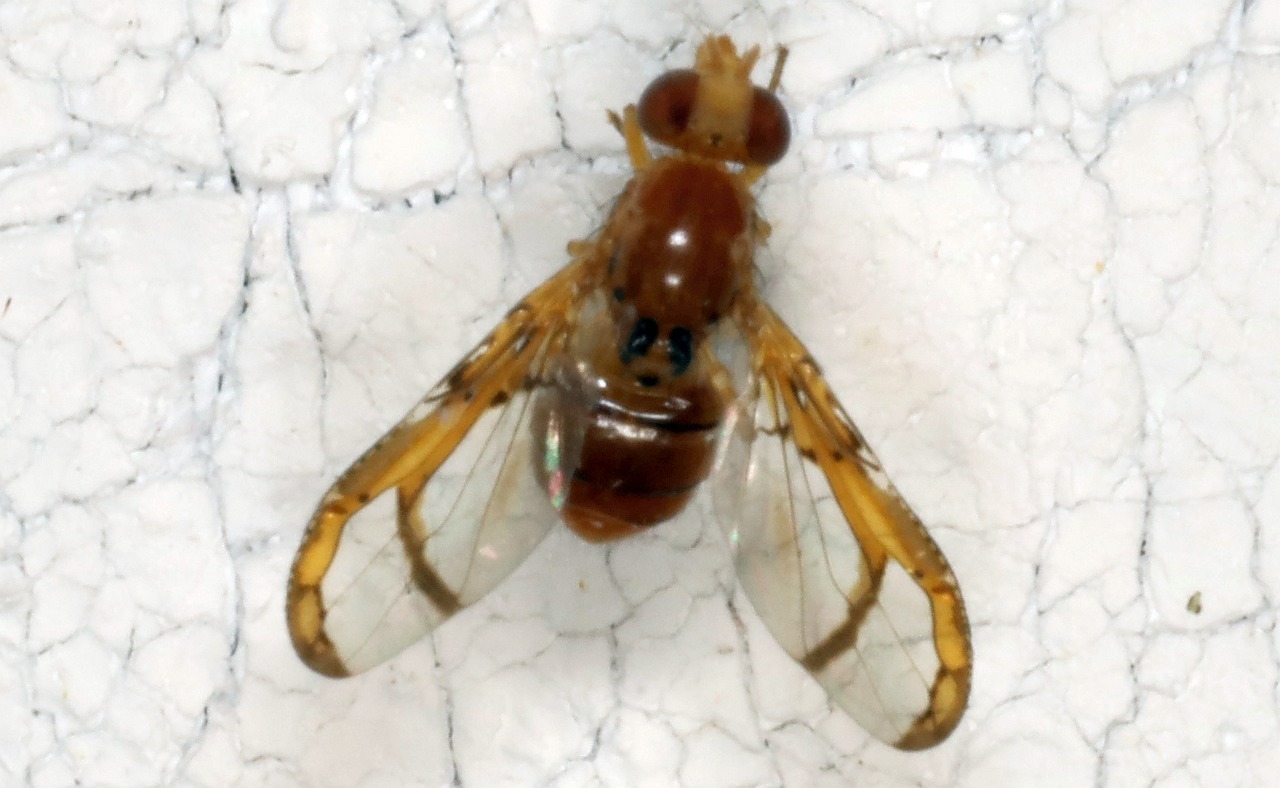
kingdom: Animalia
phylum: Arthropoda
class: Insecta
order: Diptera
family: Ulidiidae
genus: Xanthacrona
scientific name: Xanthacrona tuberosa
